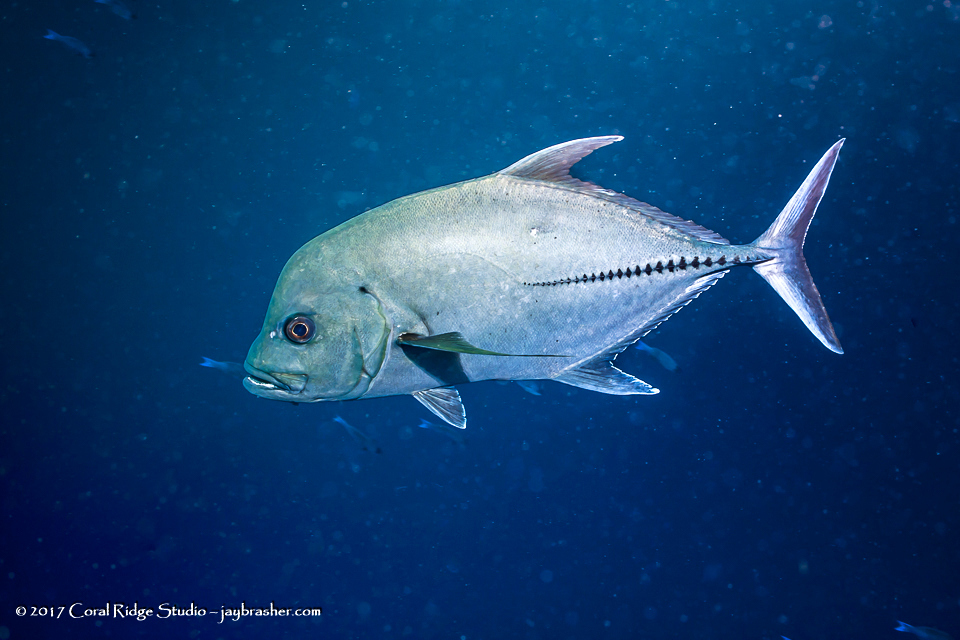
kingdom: Animalia
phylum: Chordata
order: Perciformes
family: Carangidae
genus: Caranx
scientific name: Caranx lugubris
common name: Black jack
